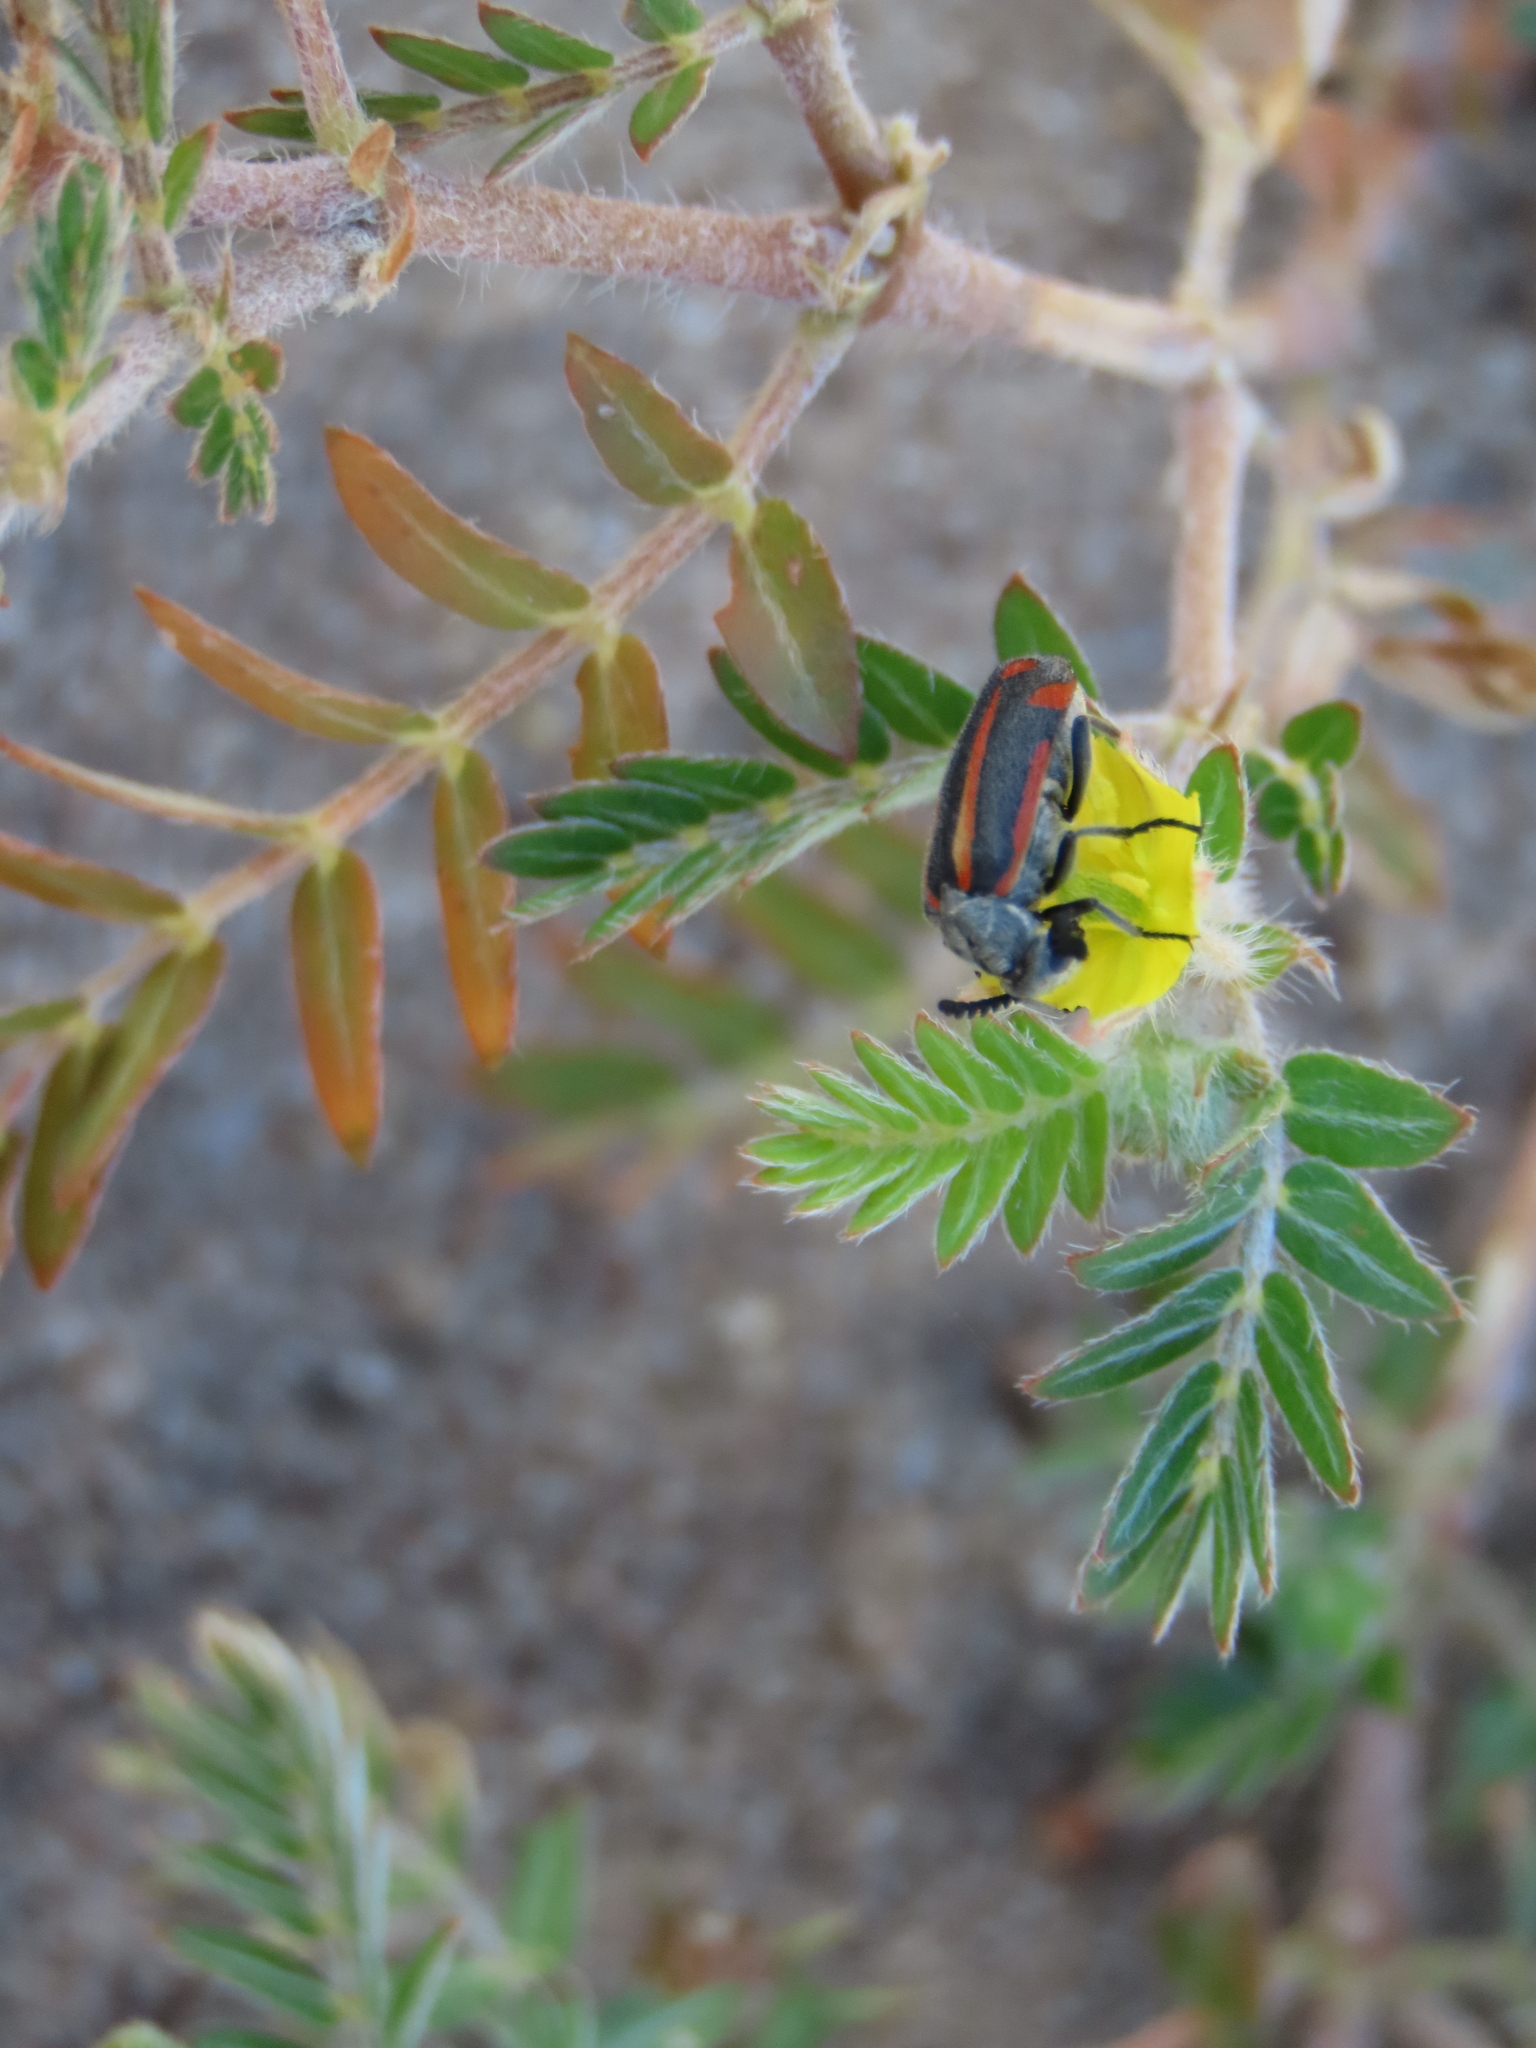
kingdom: Animalia
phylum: Arthropoda
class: Insecta
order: Coleoptera
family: Meloidae
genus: Ceroctis
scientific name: Ceroctis angolensis
